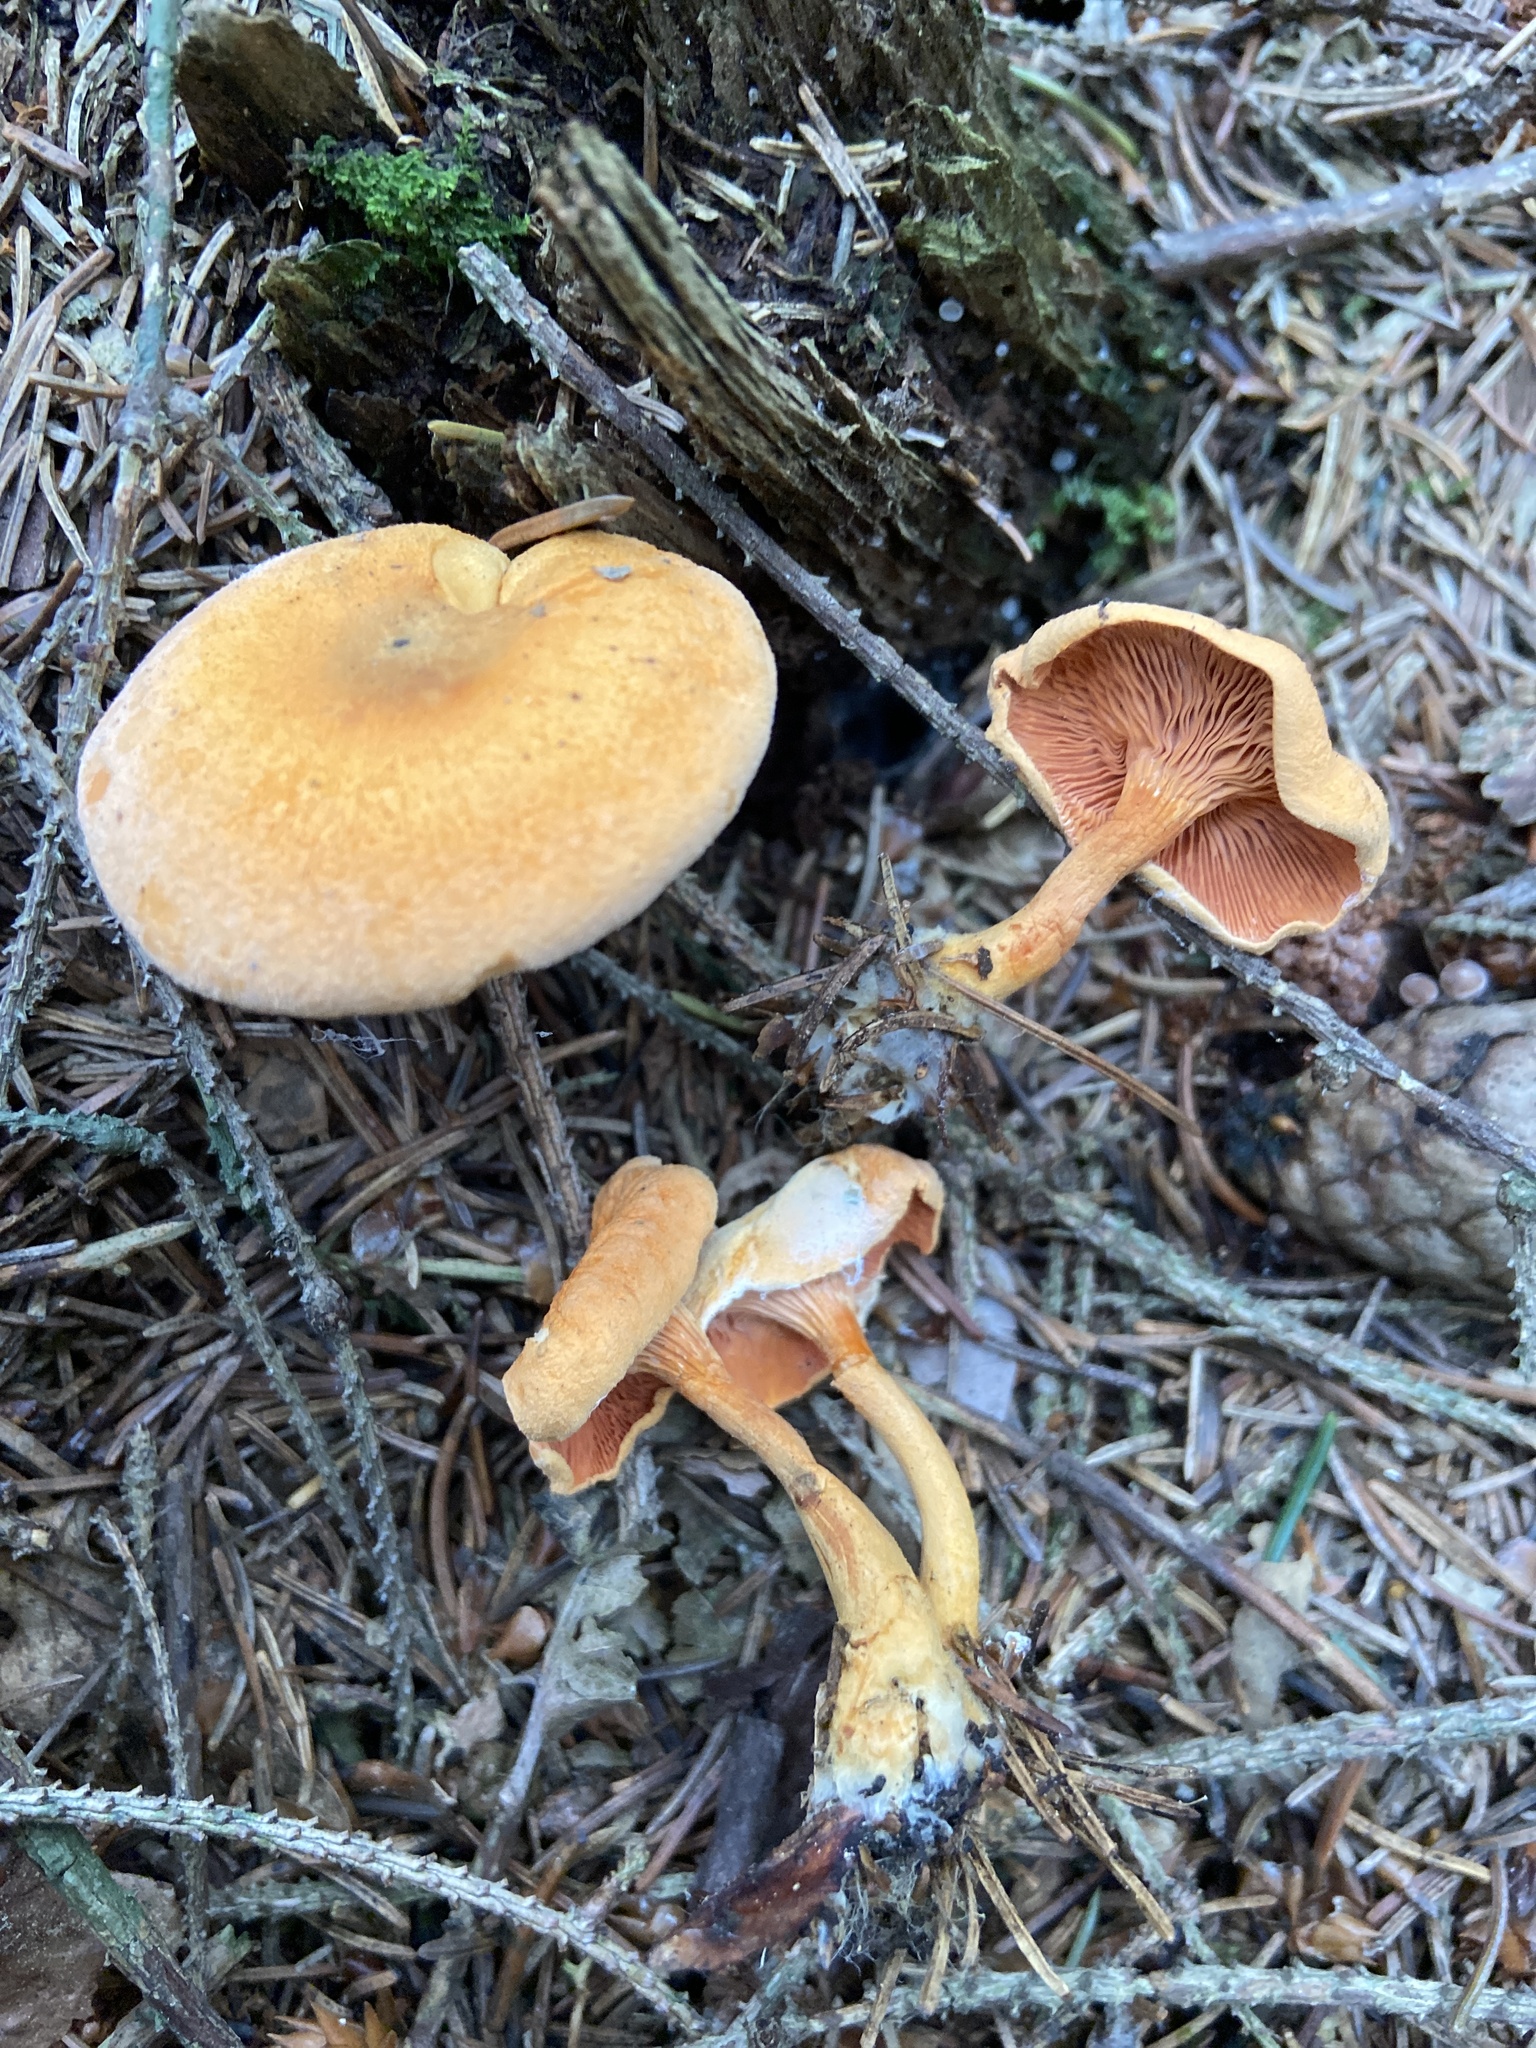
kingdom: Fungi
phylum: Basidiomycota
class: Agaricomycetes
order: Boletales
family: Hygrophoropsidaceae
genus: Hygrophoropsis
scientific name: Hygrophoropsis aurantiaca
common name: False chanterelle
